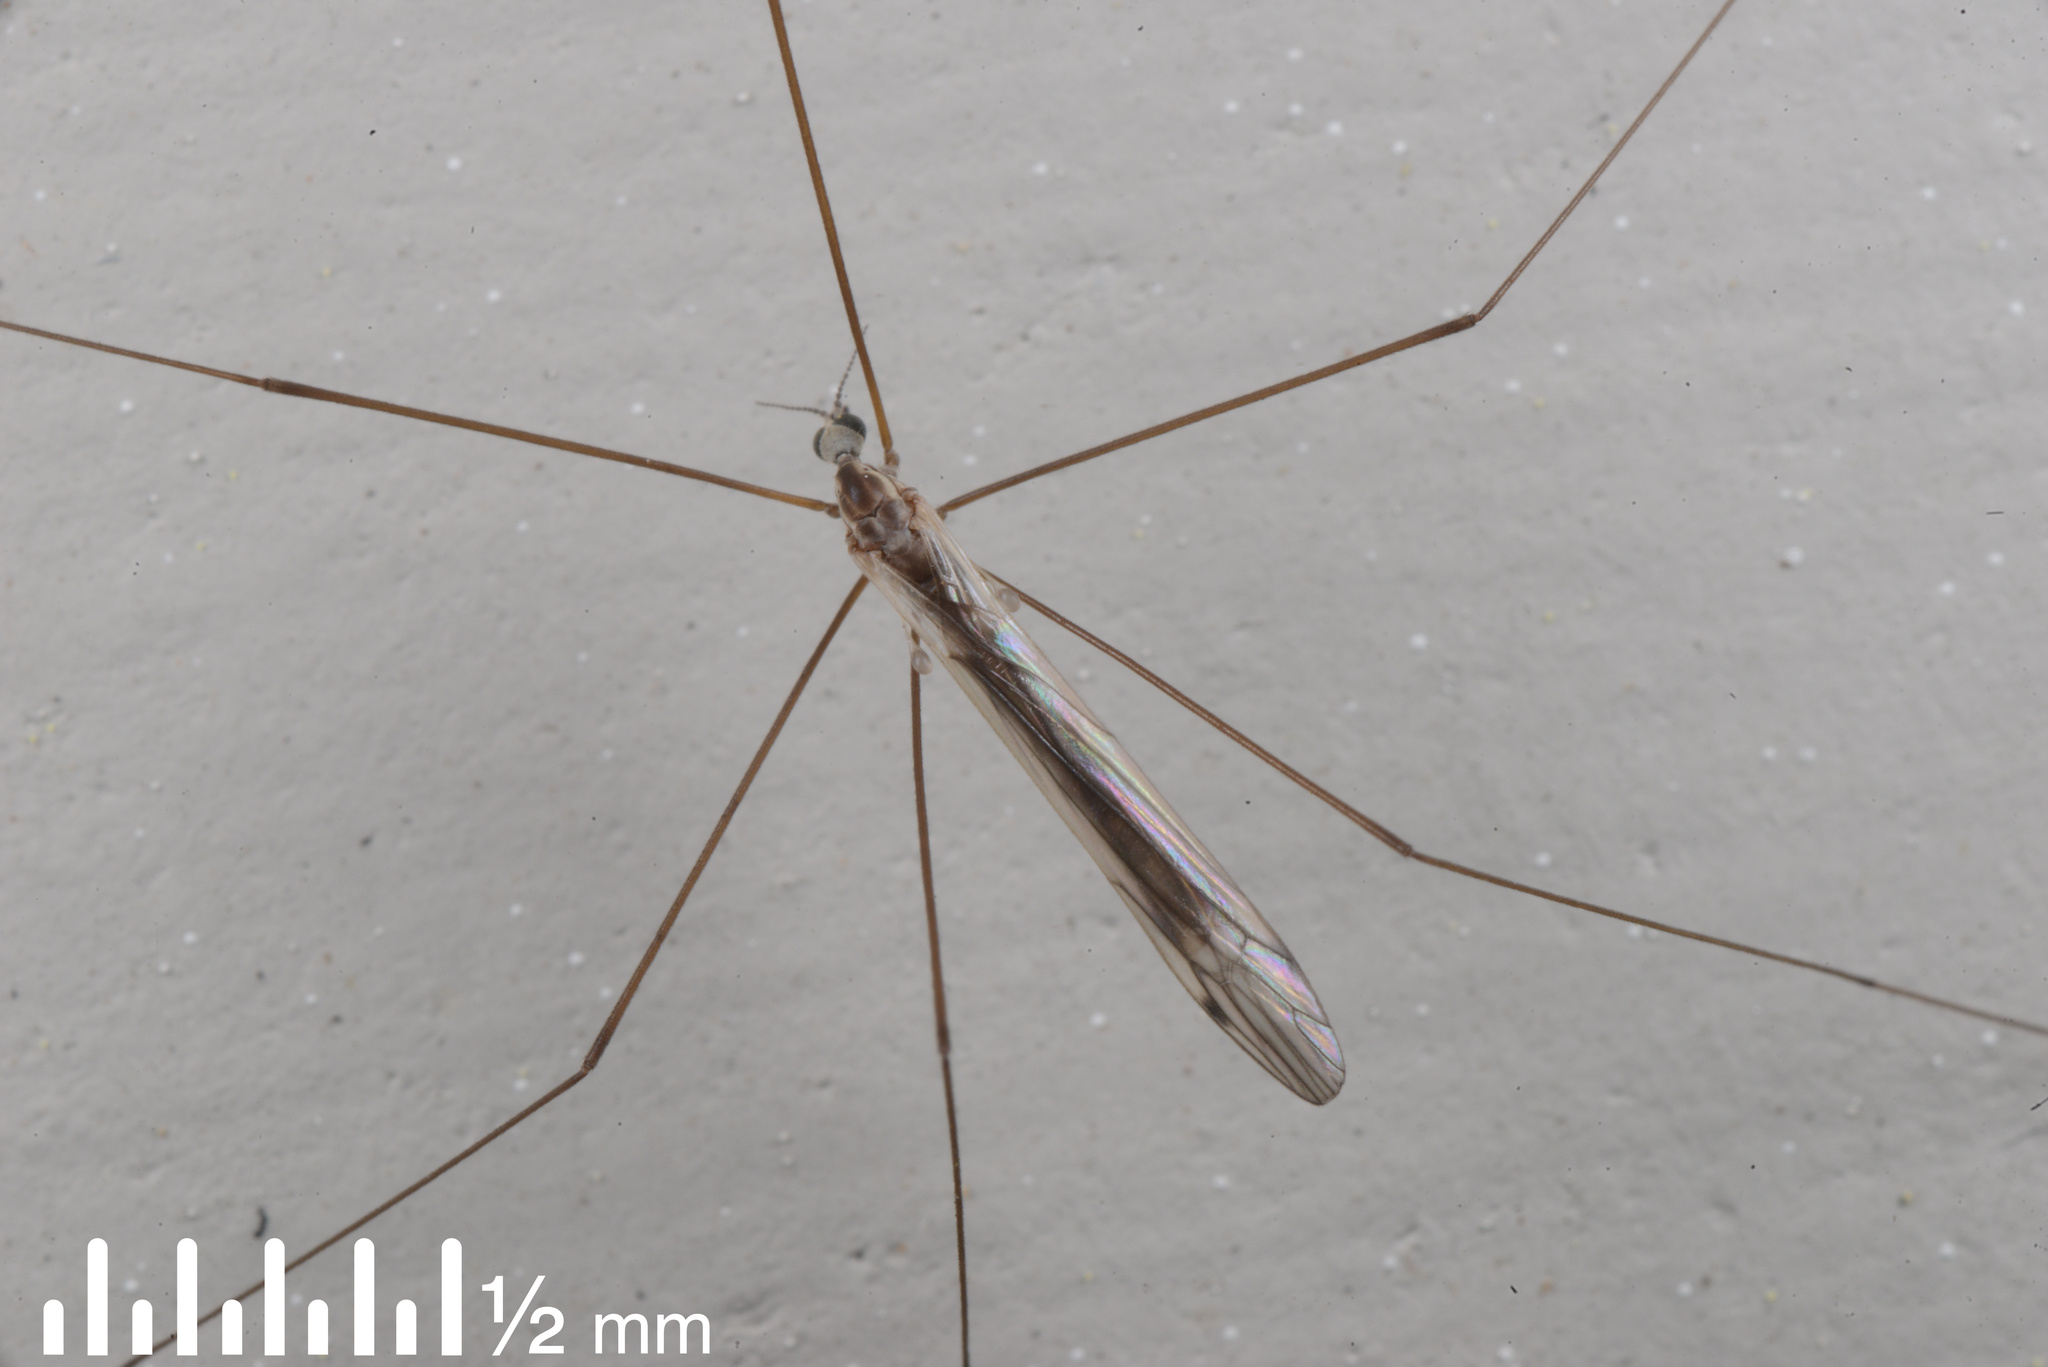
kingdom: Animalia
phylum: Arthropoda
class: Insecta
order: Diptera
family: Limoniidae
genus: Dicranomyia
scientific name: Dicranomyia aegrotans
